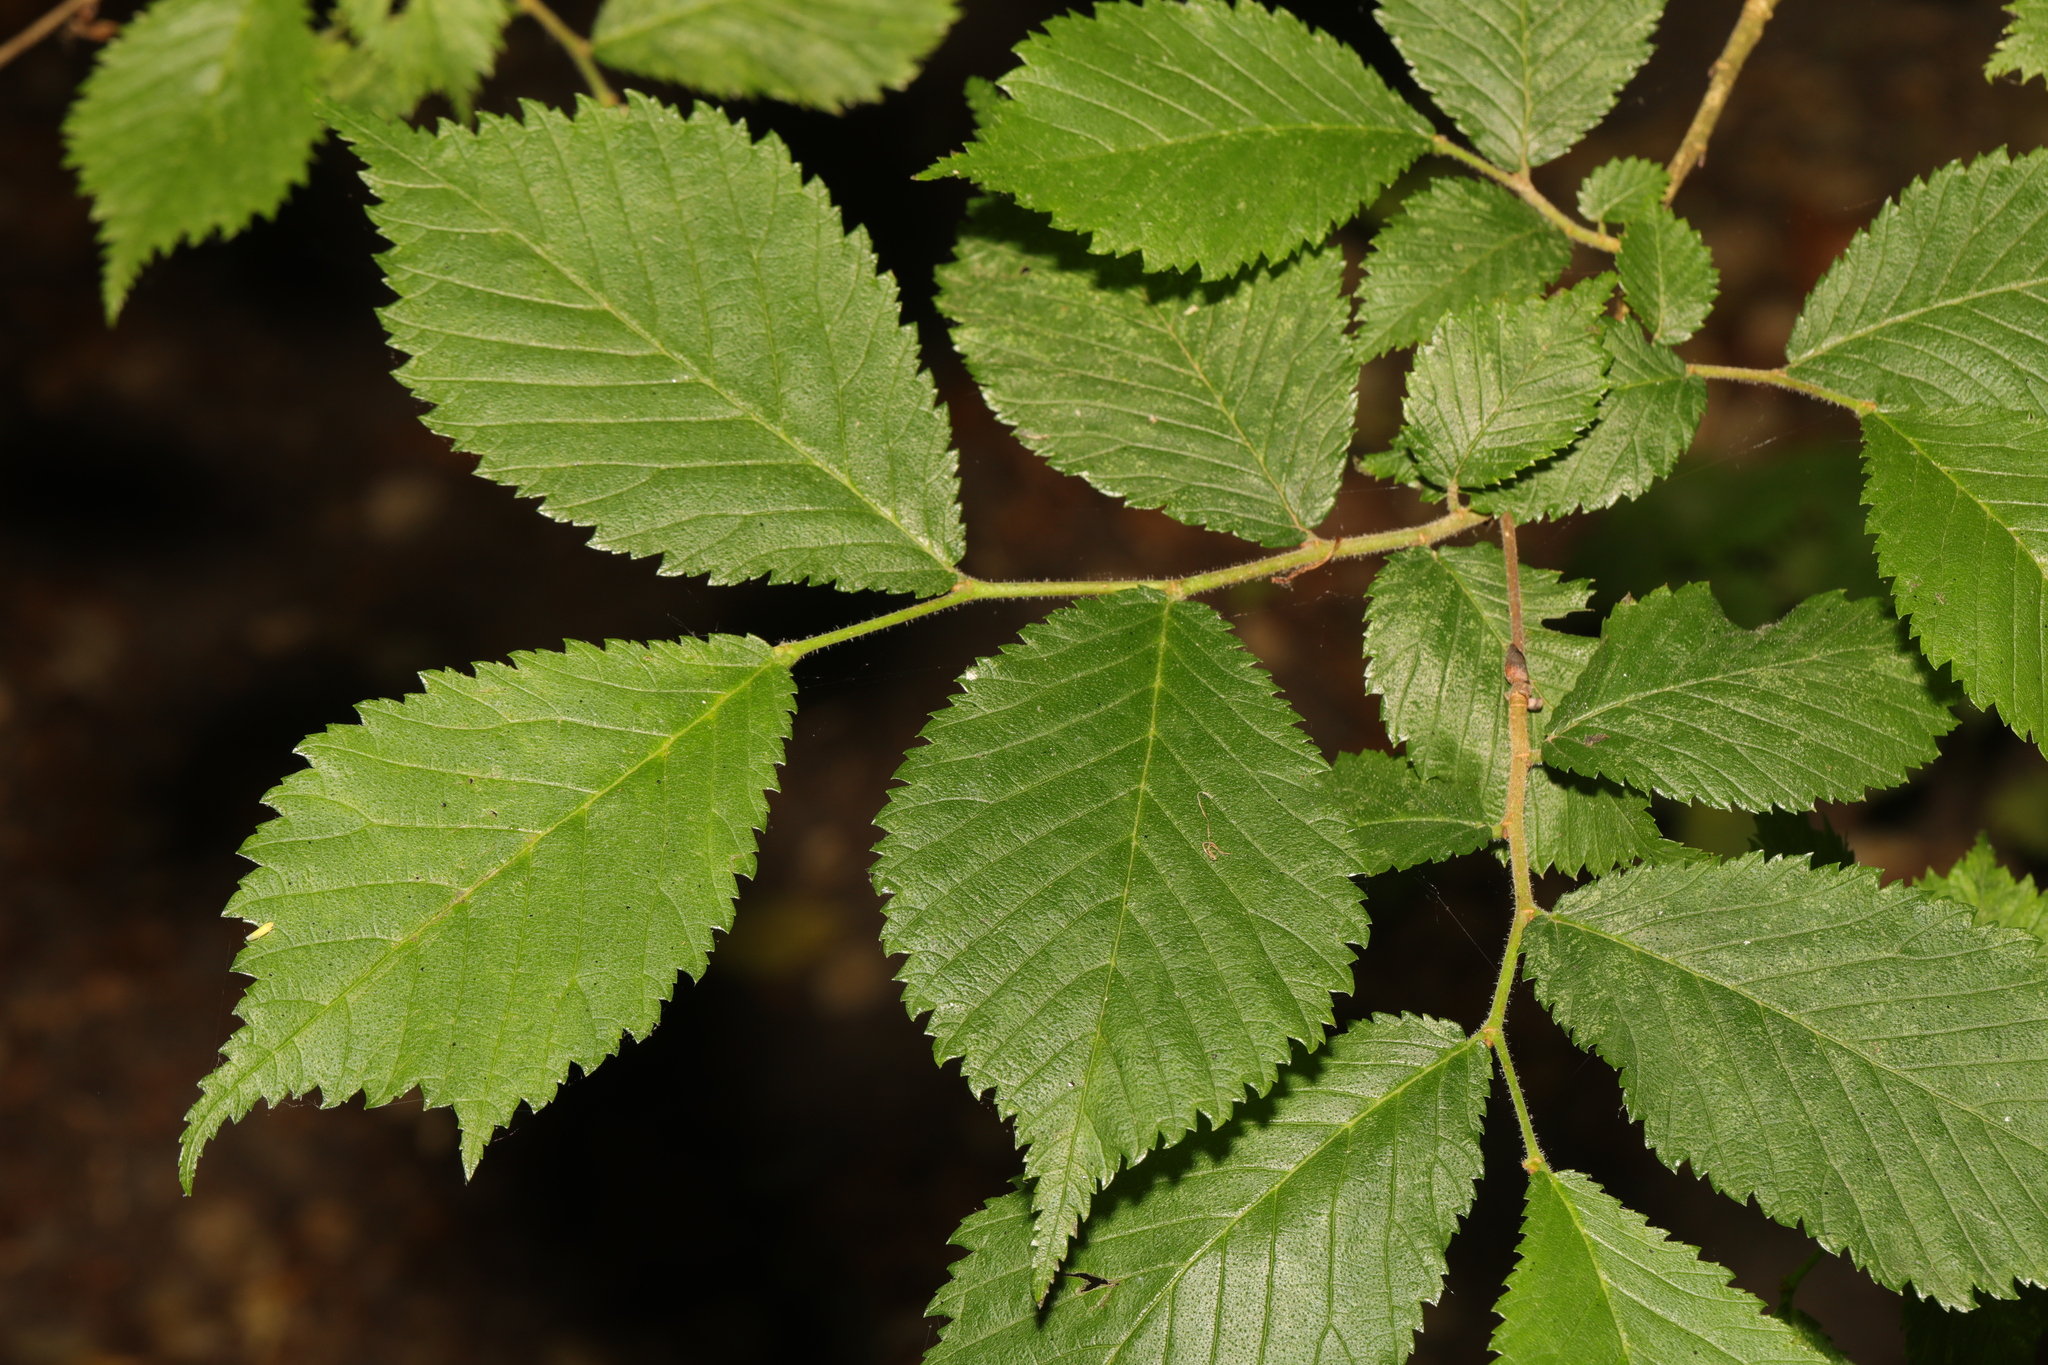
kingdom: Plantae
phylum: Tracheophyta
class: Magnoliopsida
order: Rosales
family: Ulmaceae
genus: Ulmus
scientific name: Ulmus glabra
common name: Wych elm
